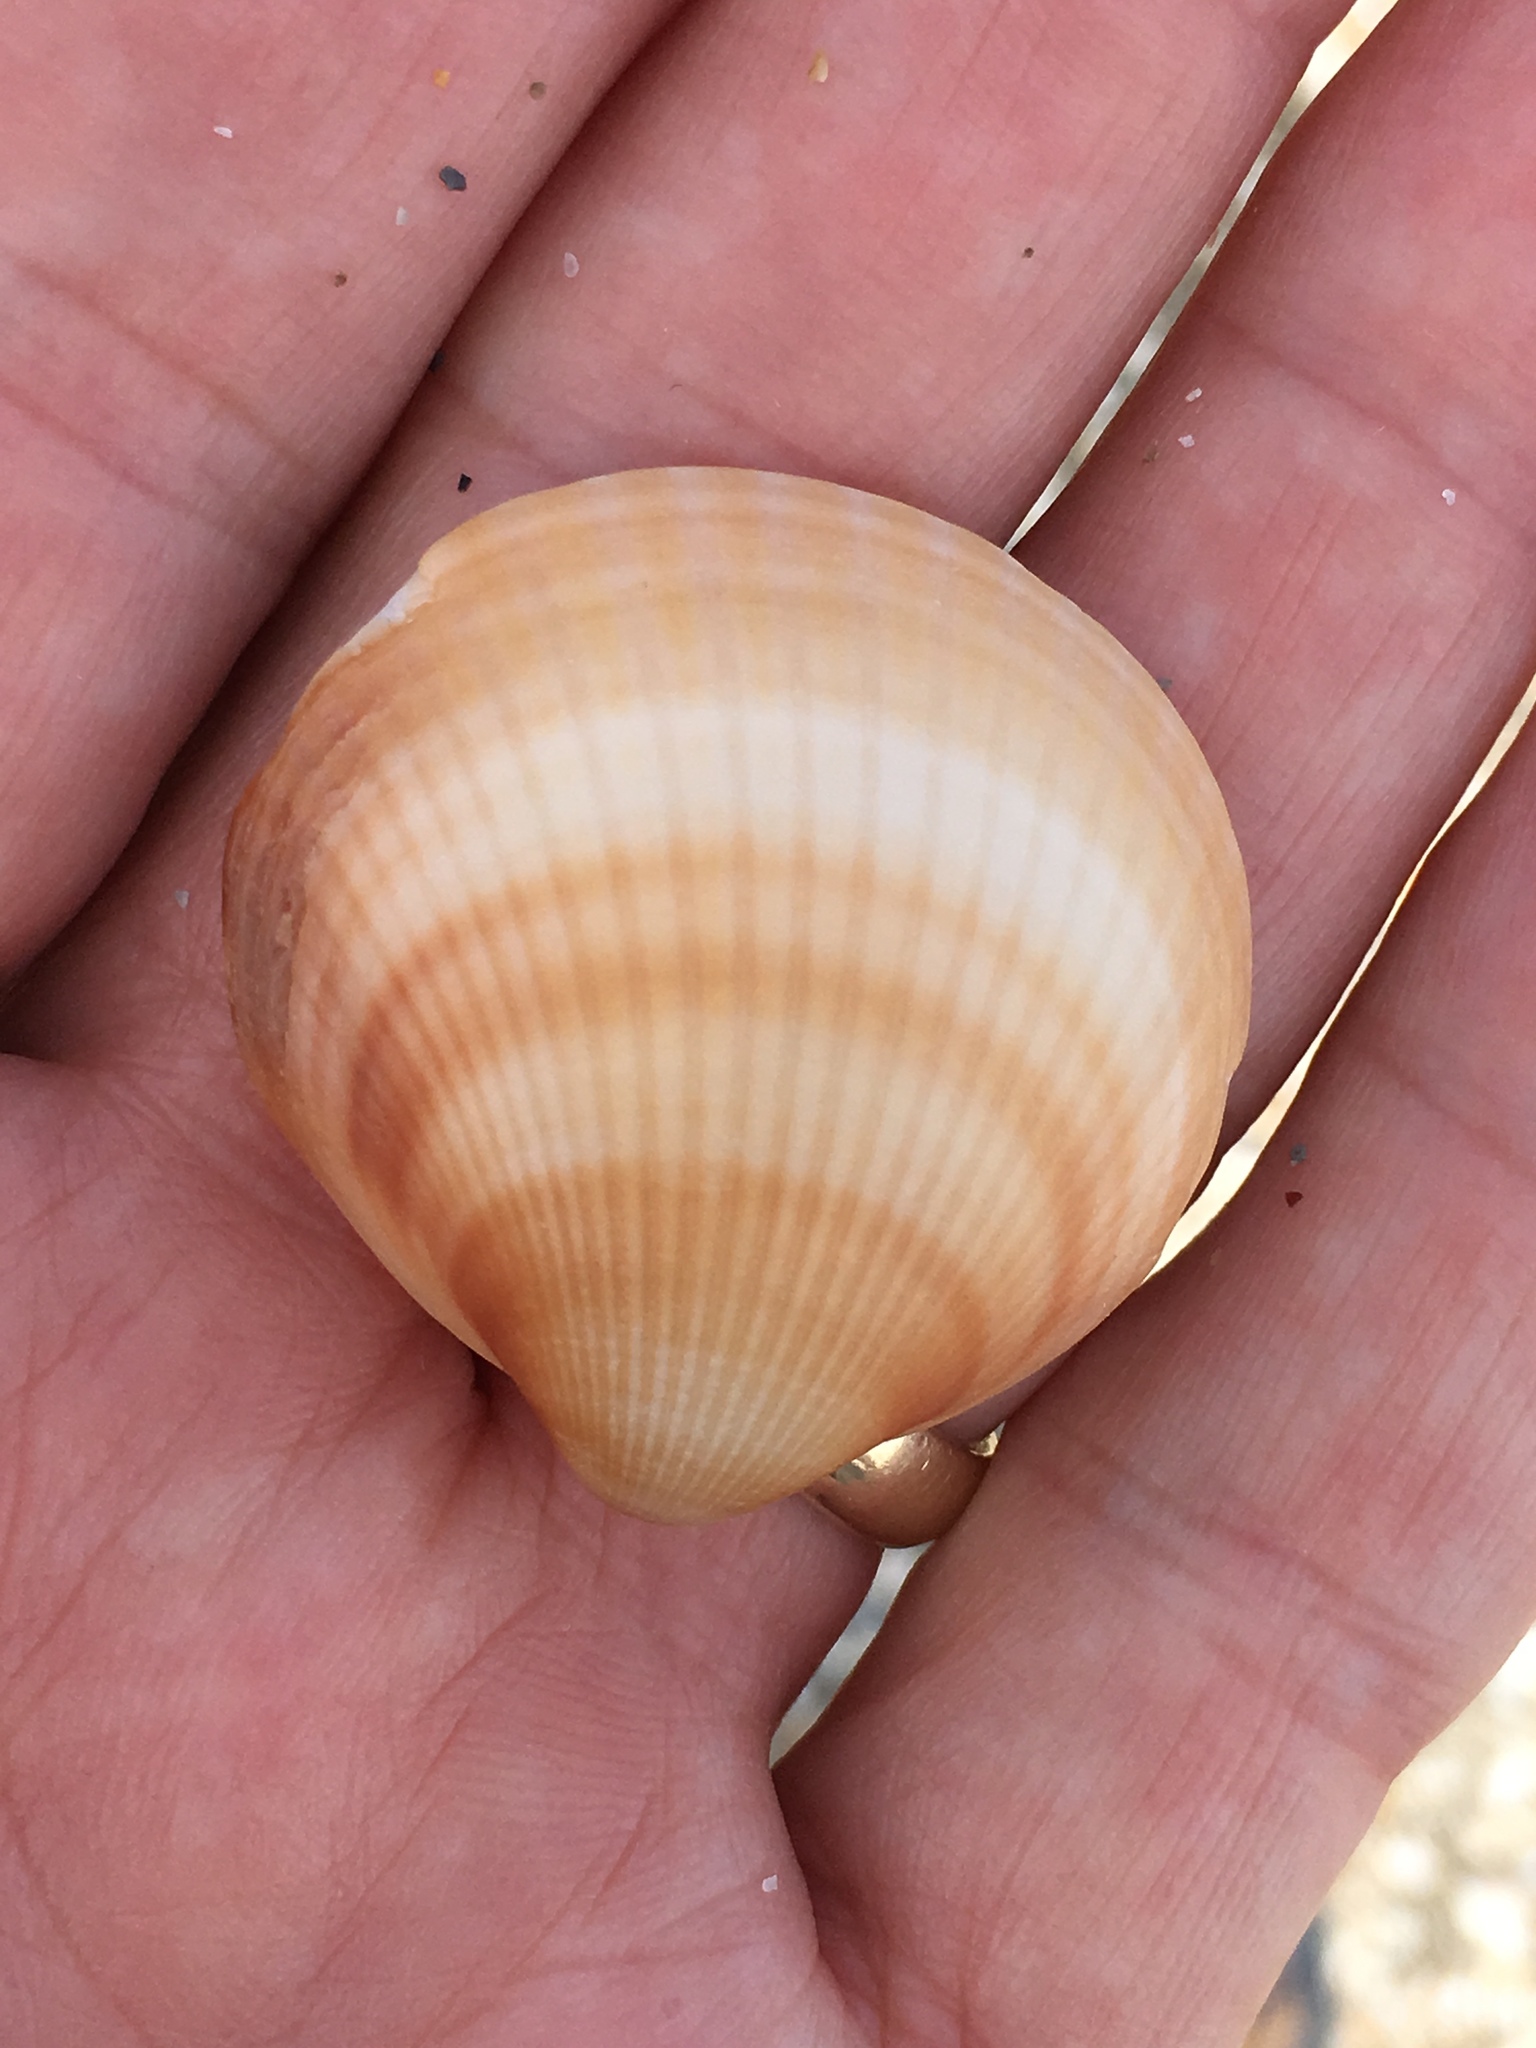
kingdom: Animalia
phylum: Mollusca
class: Bivalvia
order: Arcida
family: Glycymerididae
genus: Glycymeris
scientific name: Glycymeris spectralis
